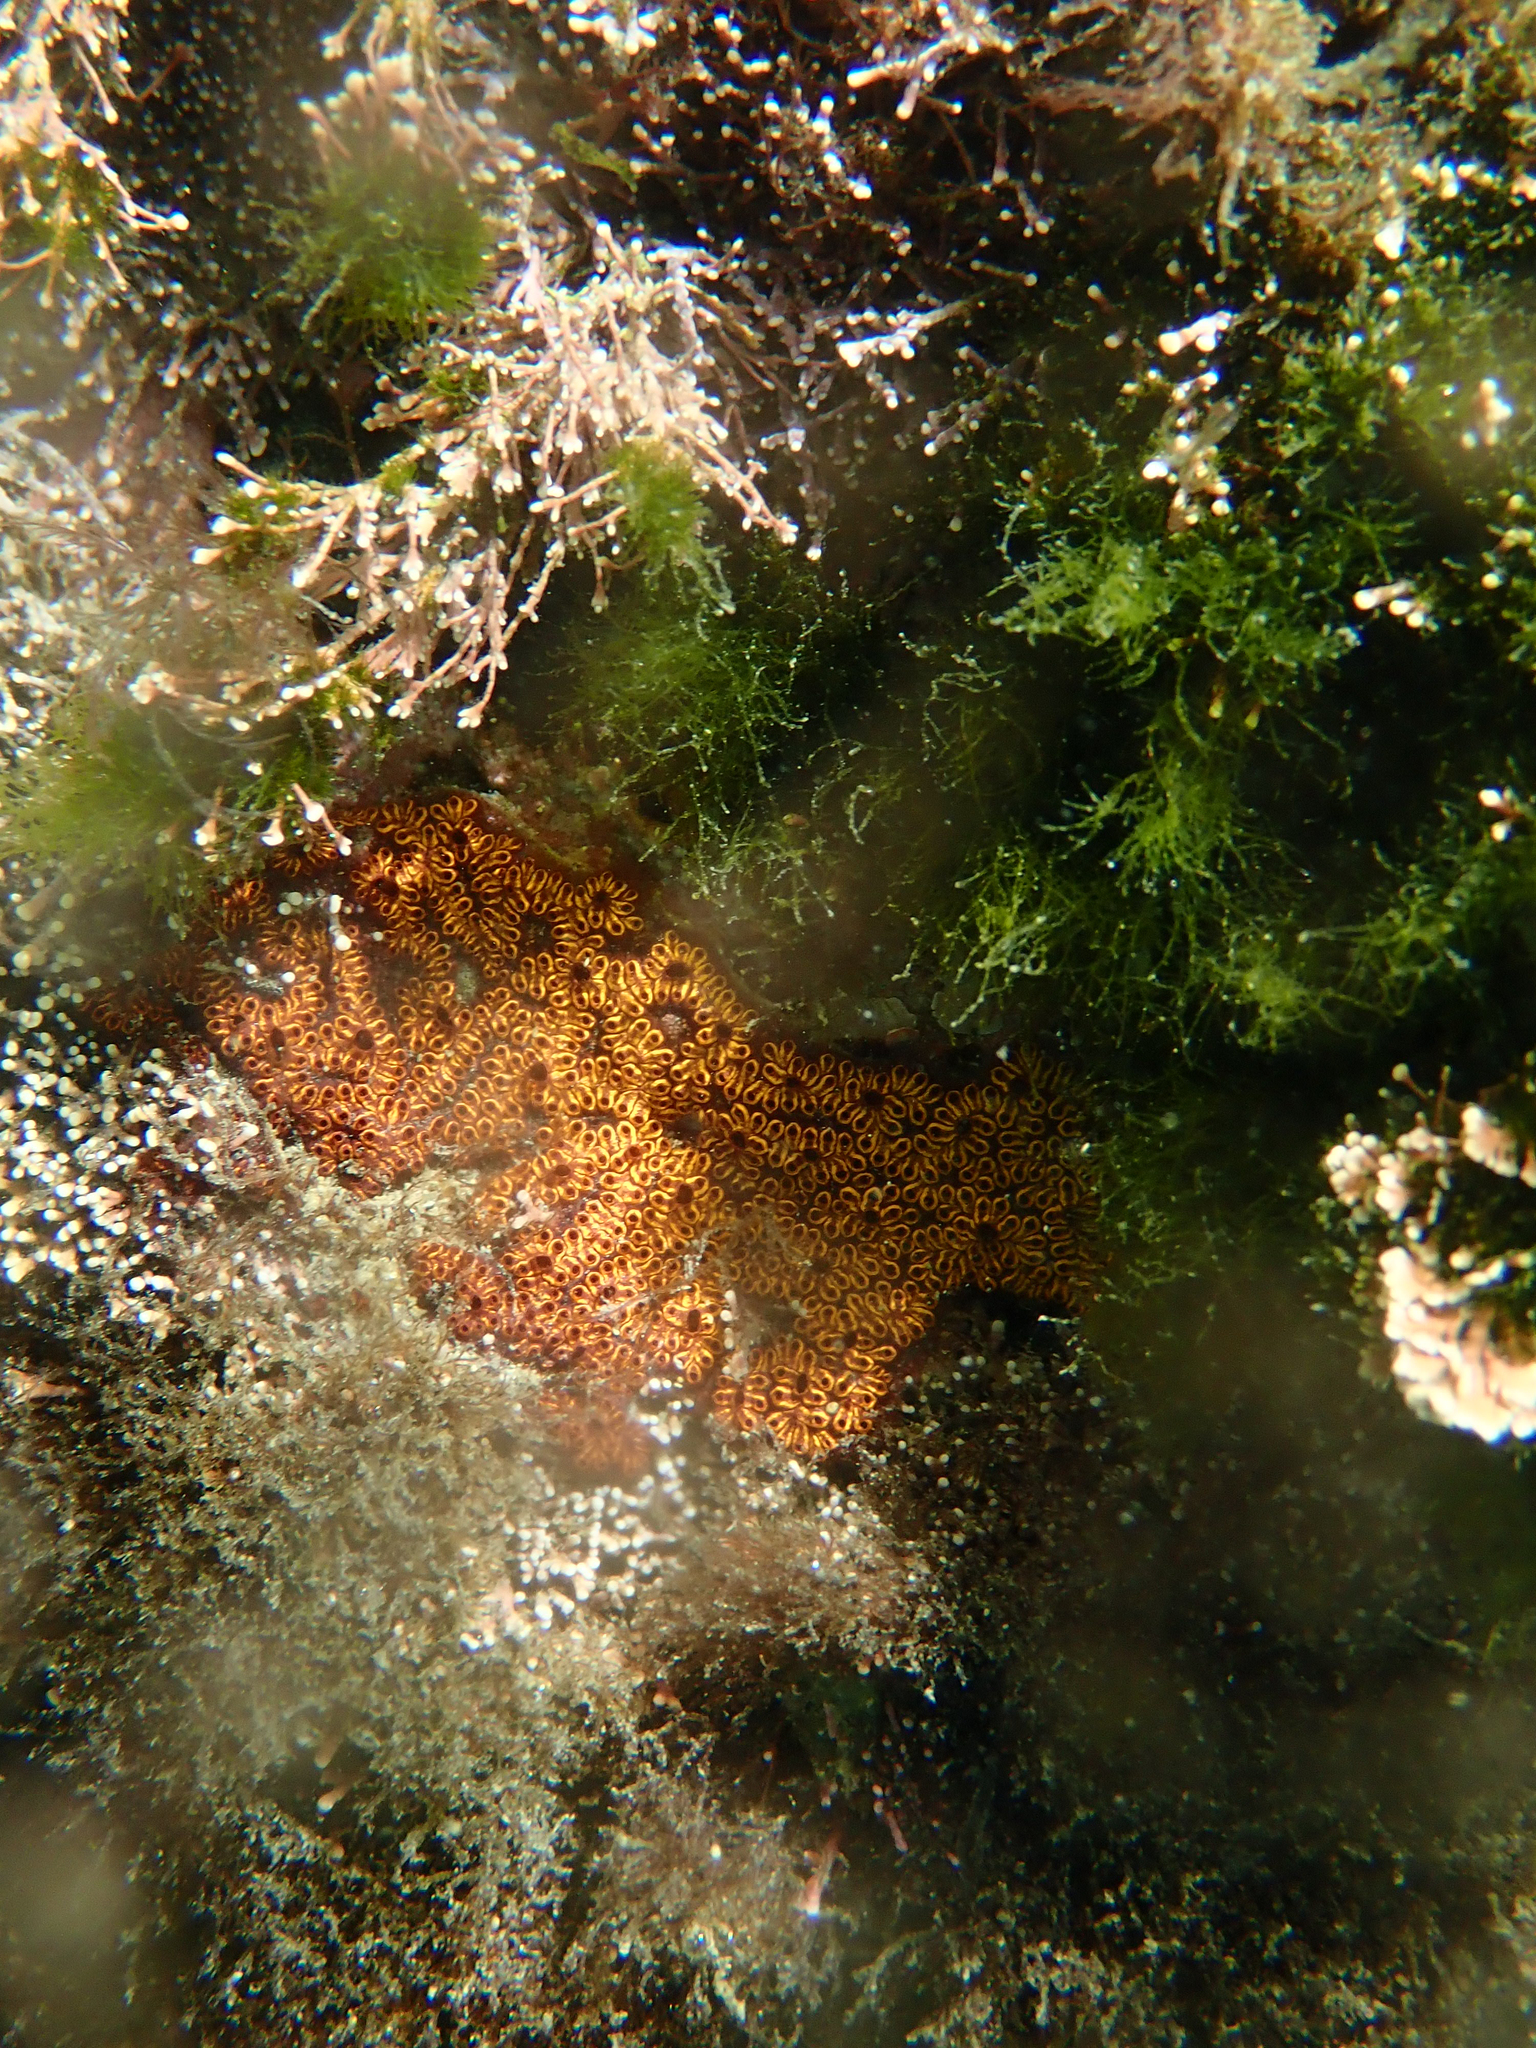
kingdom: Animalia
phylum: Chordata
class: Ascidiacea
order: Stolidobranchia
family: Styelidae
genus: Botrylloides
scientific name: Botrylloides niger
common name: Black synascidia
